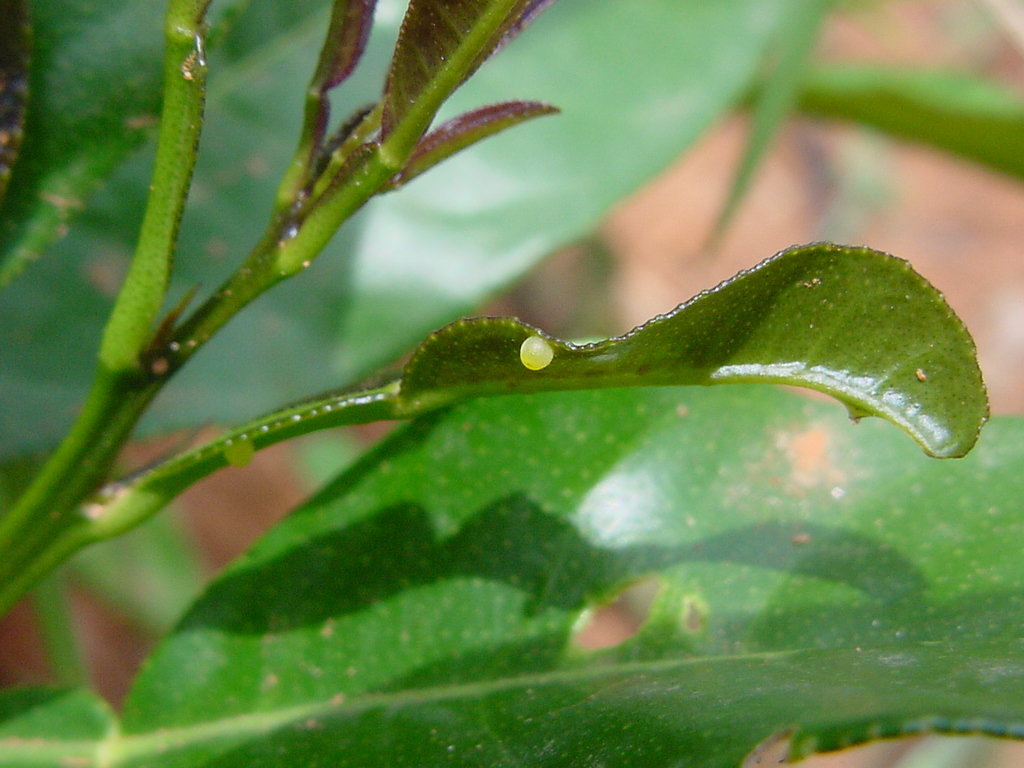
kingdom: Animalia
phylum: Arthropoda
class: Insecta
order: Lepidoptera
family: Papilionidae
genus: Papilio
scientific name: Papilio polytes
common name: Common mormon
